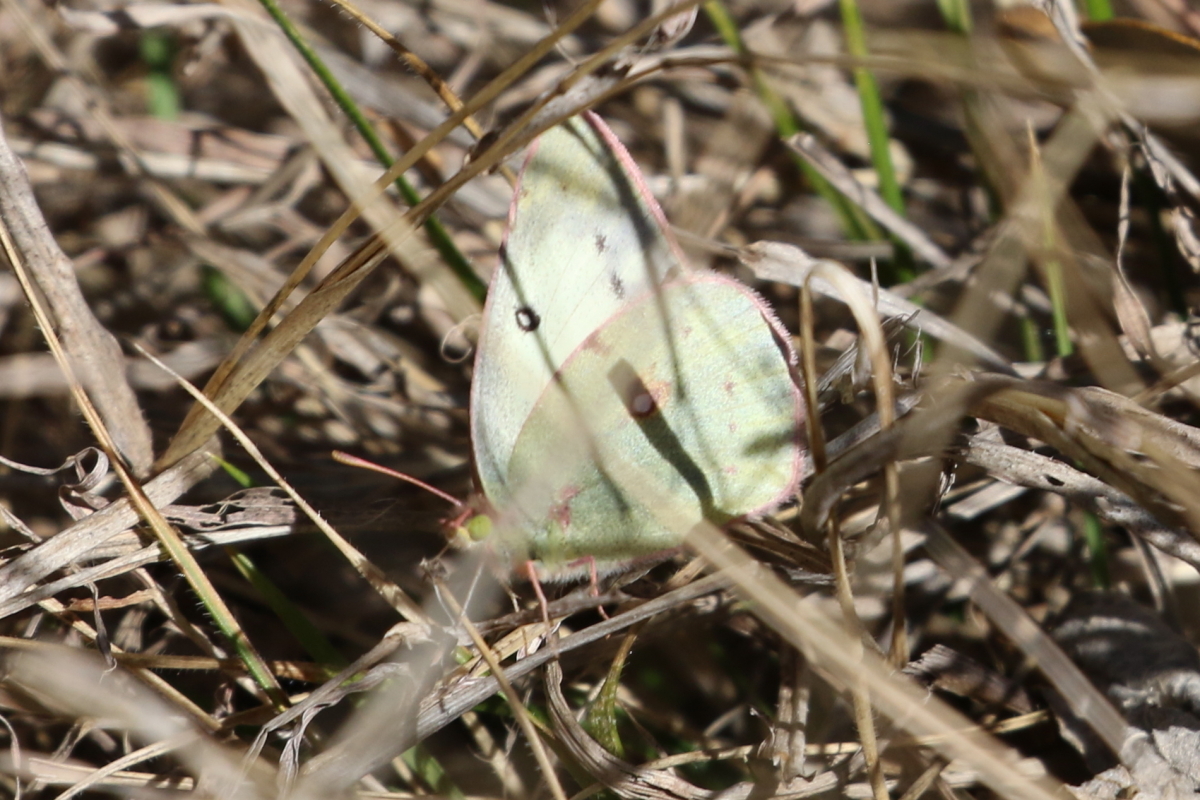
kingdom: Animalia
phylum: Arthropoda
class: Insecta
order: Lepidoptera
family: Pieridae
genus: Colias
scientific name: Colias eurytheme
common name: Alfalfa butterfly
